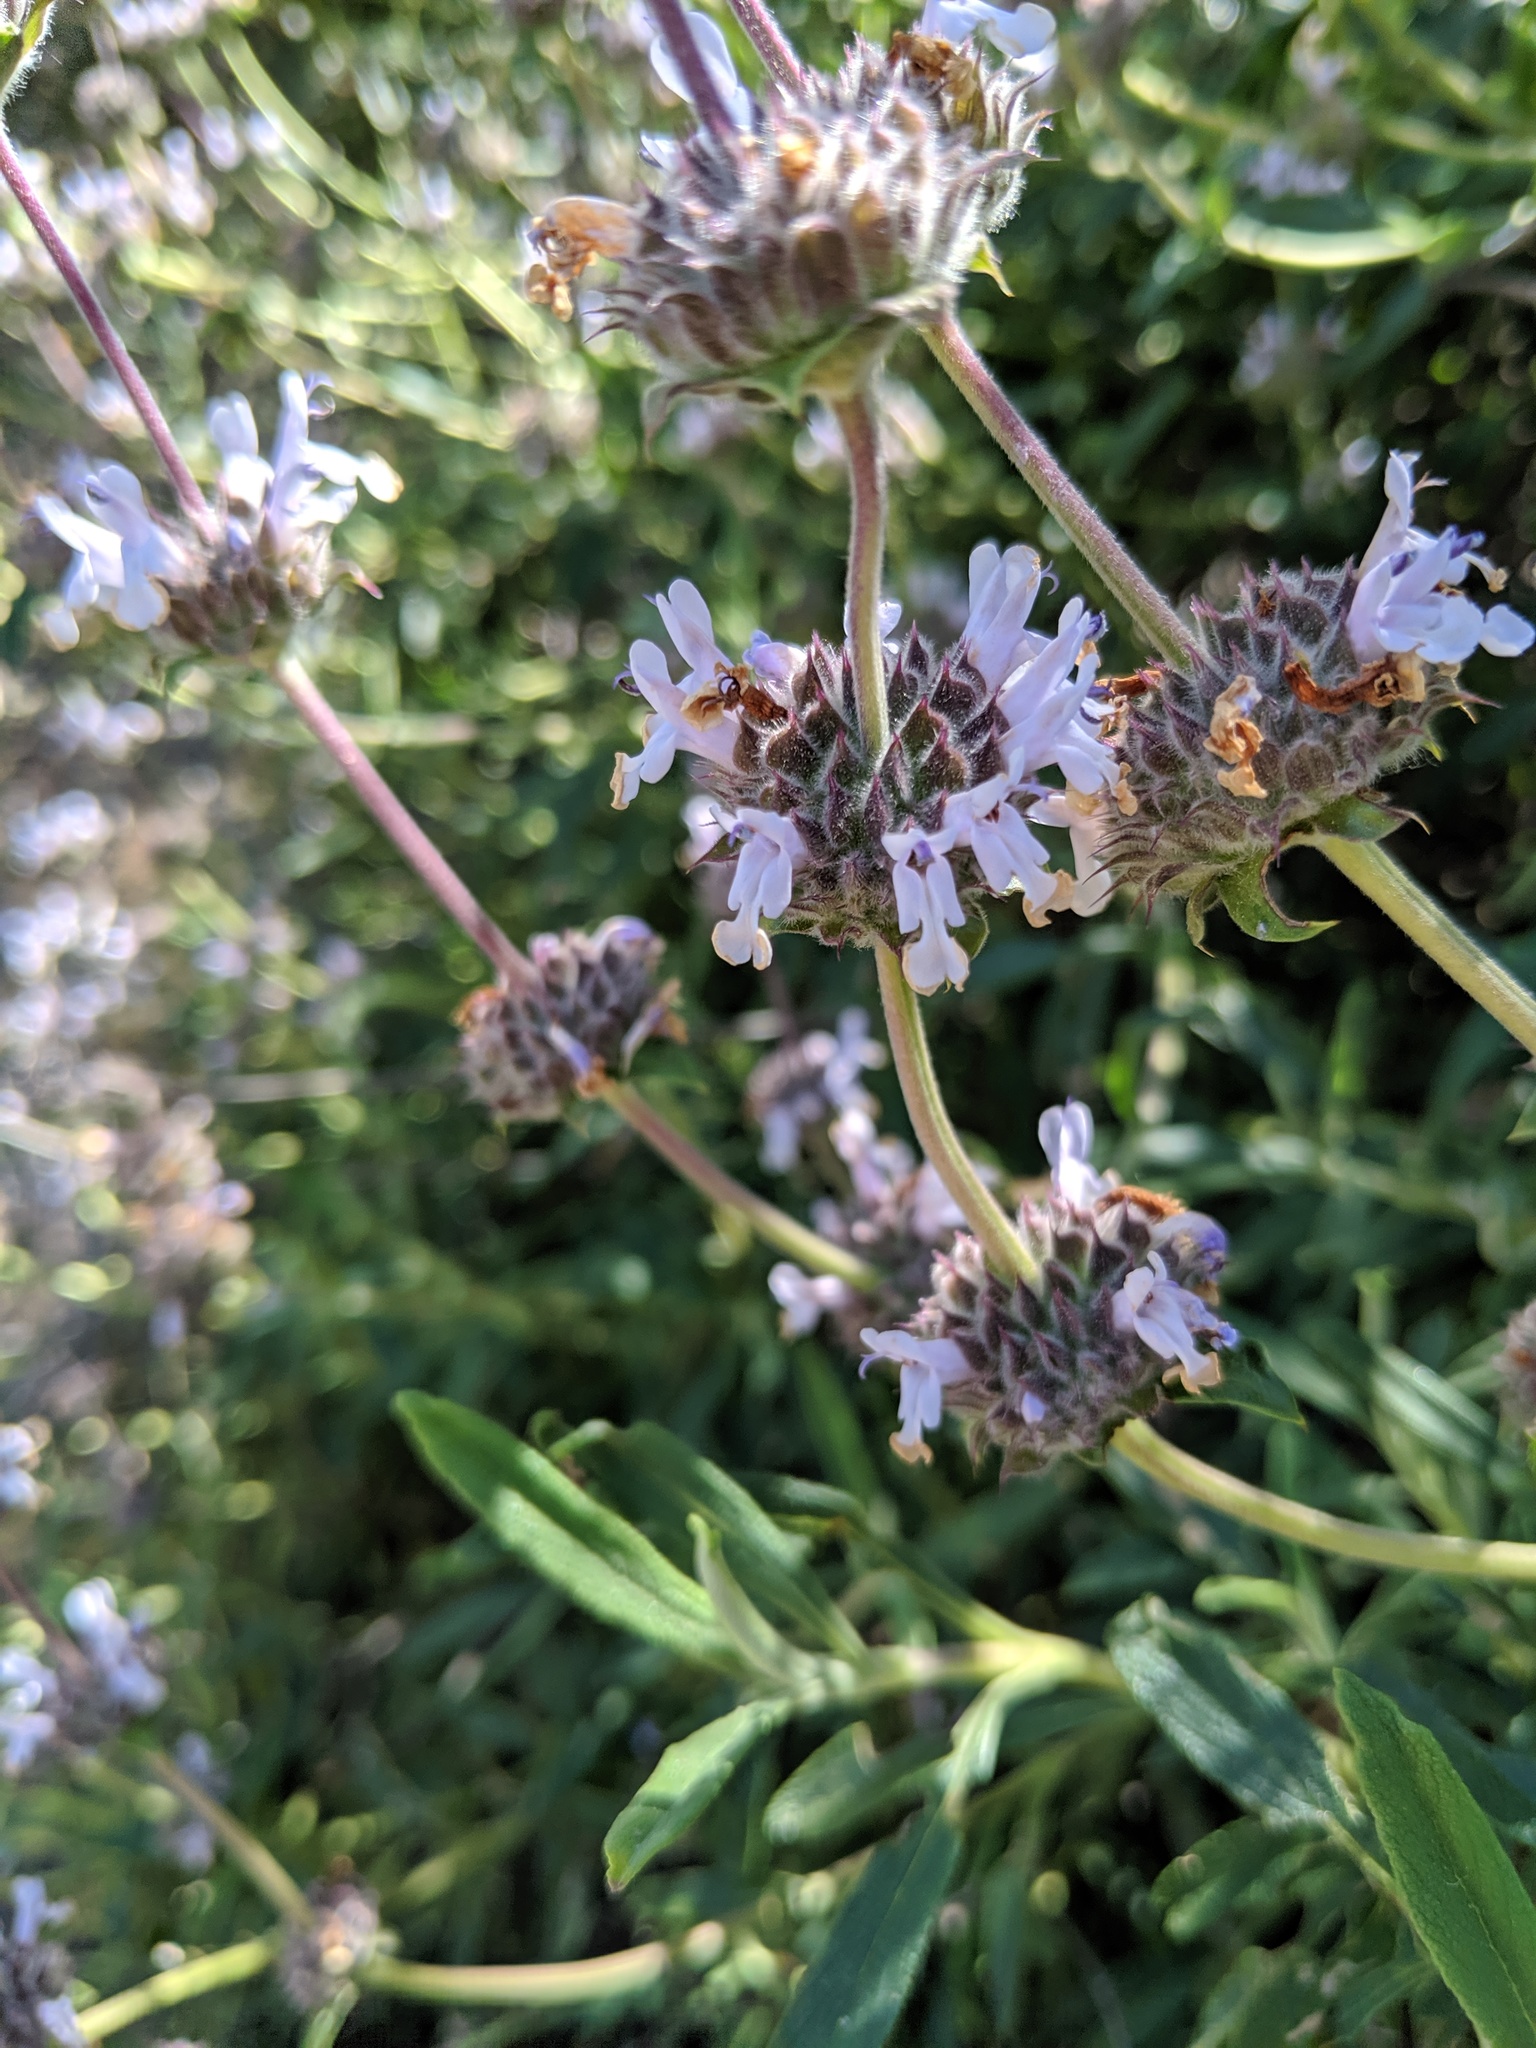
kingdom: Plantae
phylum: Tracheophyta
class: Magnoliopsida
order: Lamiales
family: Lamiaceae
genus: Salvia
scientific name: Salvia mellifera
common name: Black sage
